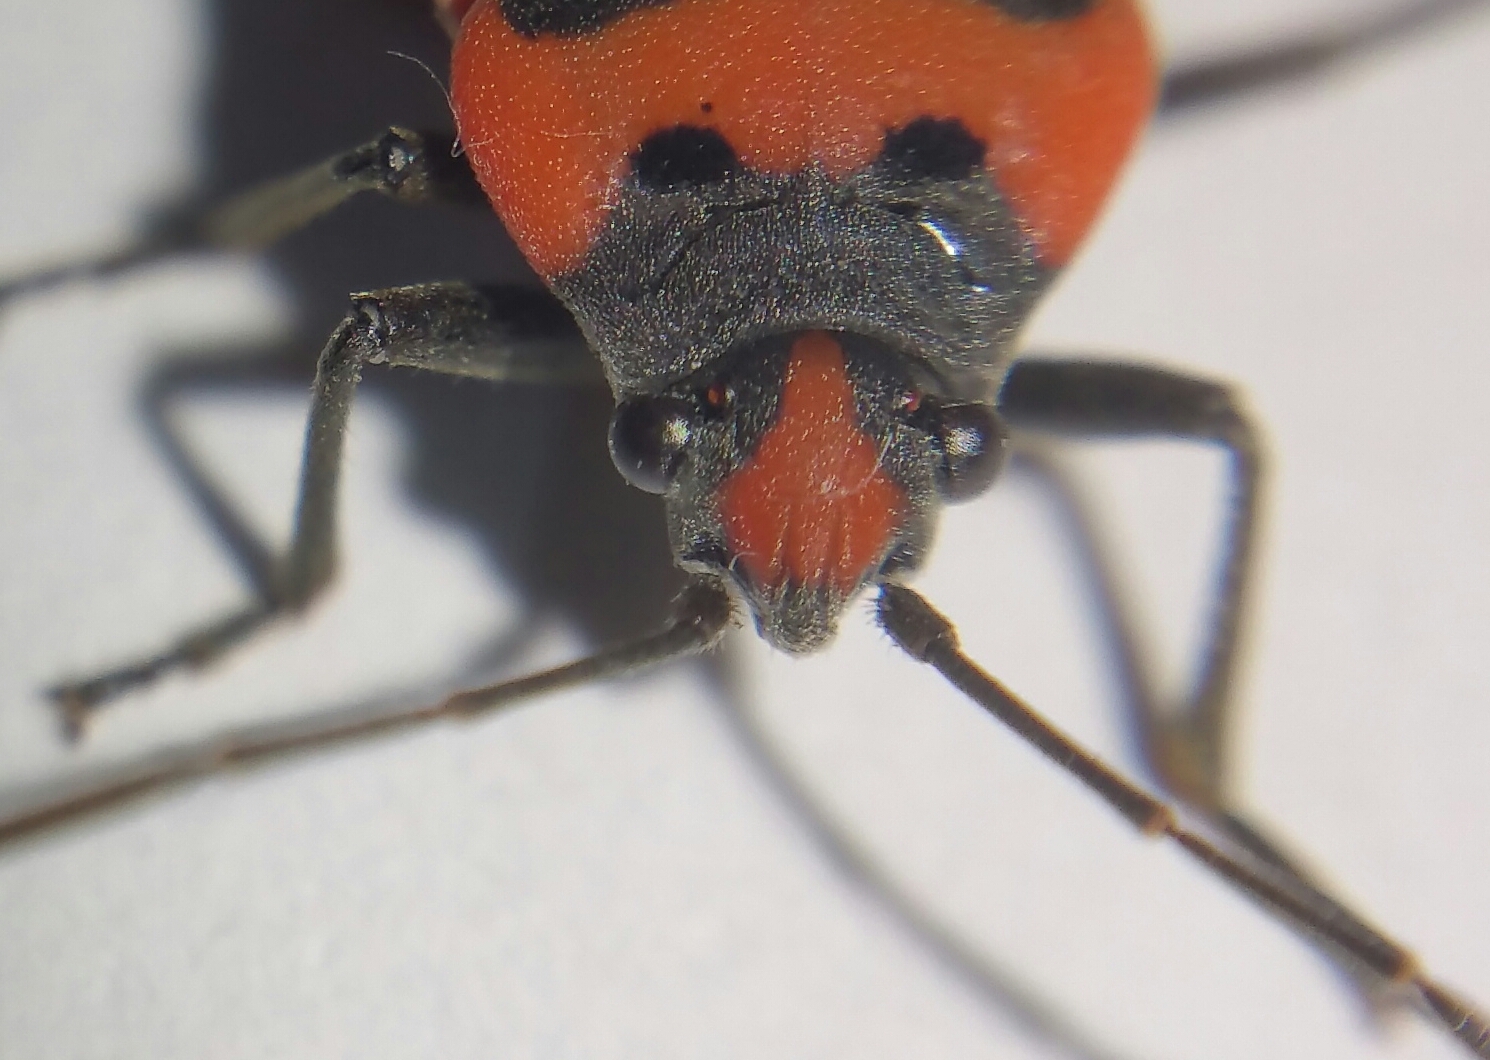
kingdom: Animalia
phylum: Arthropoda
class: Insecta
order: Hemiptera
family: Lygaeidae
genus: Lygaeus
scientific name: Lygaeus equestris
